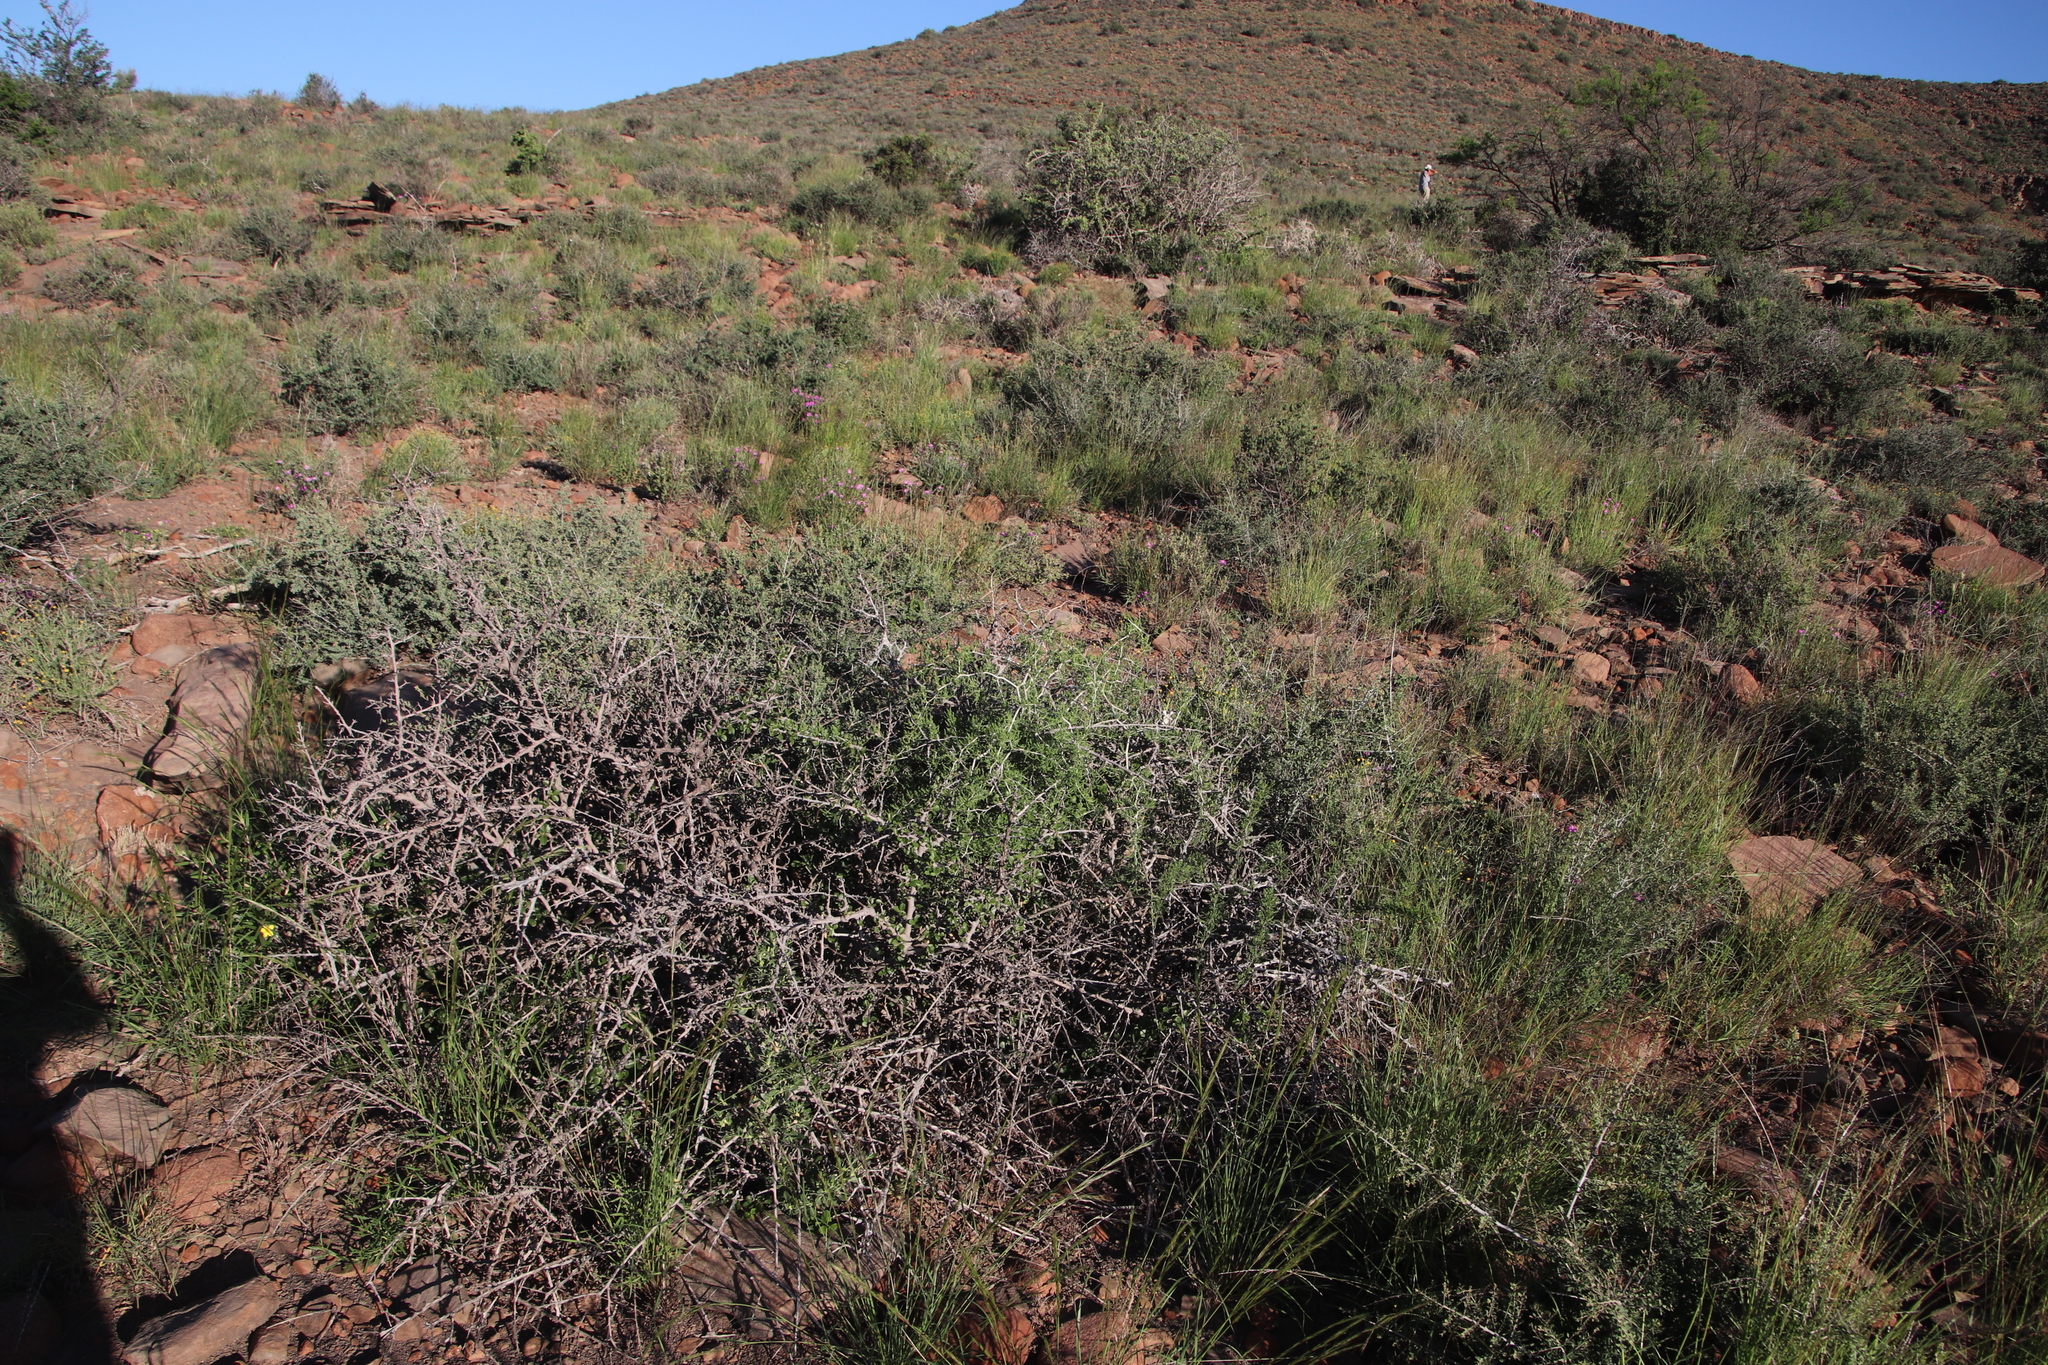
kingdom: Plantae
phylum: Tracheophyta
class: Liliopsida
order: Asparagales
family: Asparagaceae
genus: Asparagus
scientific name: Asparagus burchellii
